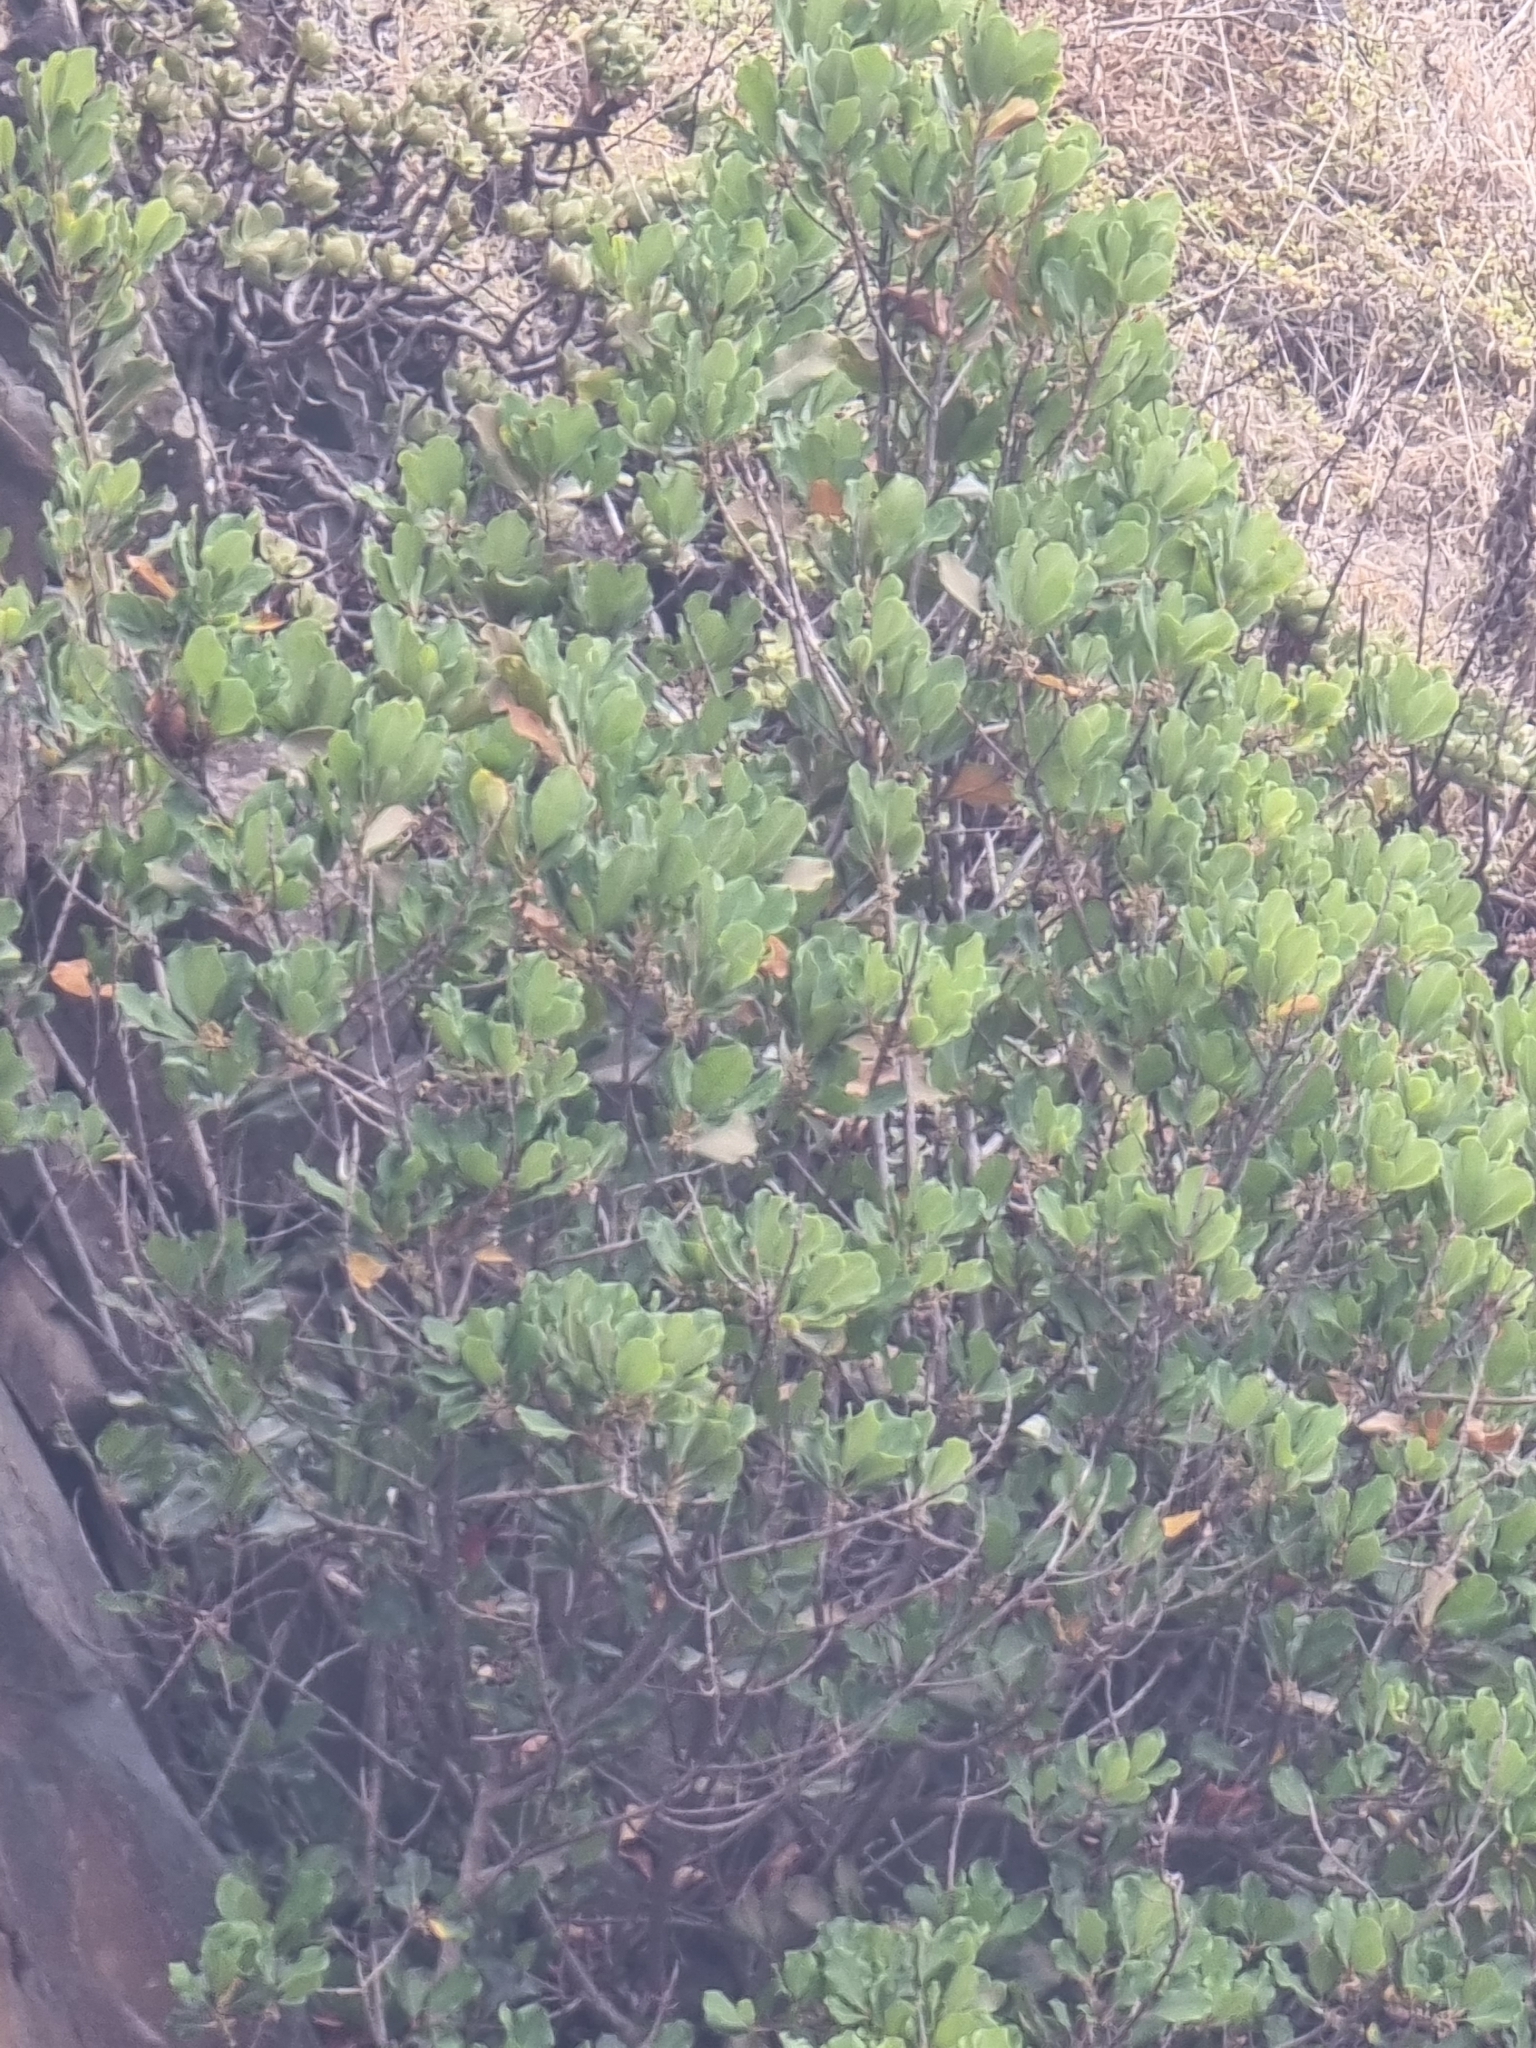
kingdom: Plantae
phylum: Tracheophyta
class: Magnoliopsida
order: Ericales
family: Sapotaceae
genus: Sideroxylon
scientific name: Sideroxylon mirmulans
